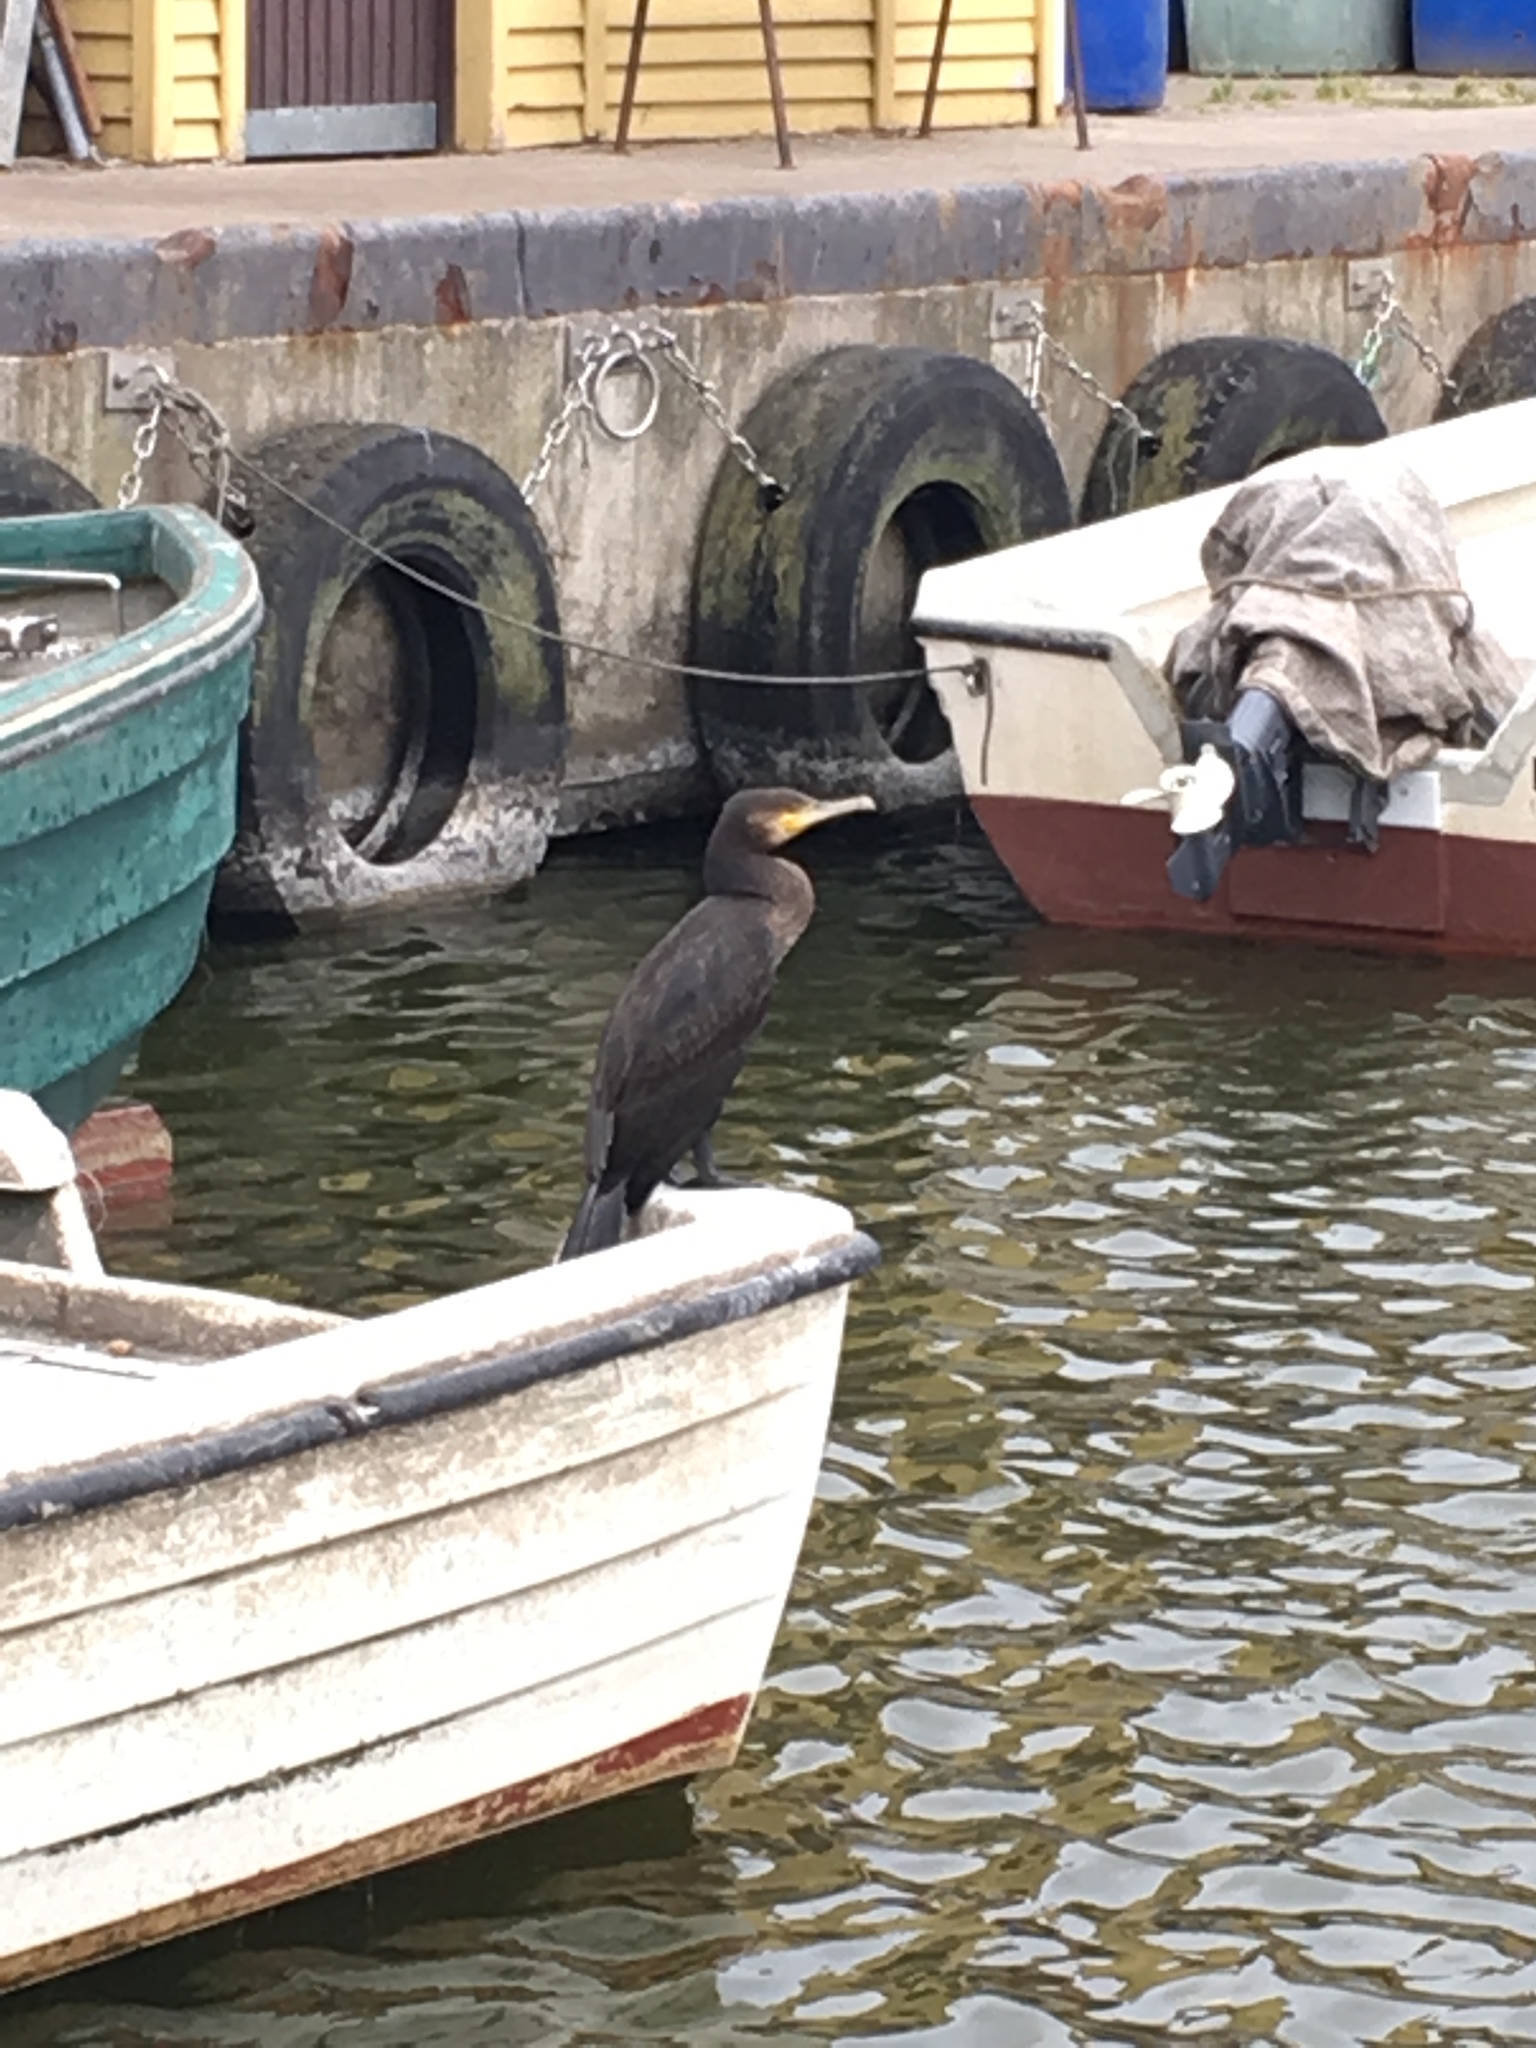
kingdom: Animalia
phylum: Chordata
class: Aves
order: Suliformes
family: Phalacrocoracidae
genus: Phalacrocorax
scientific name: Phalacrocorax carbo
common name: Great cormorant
